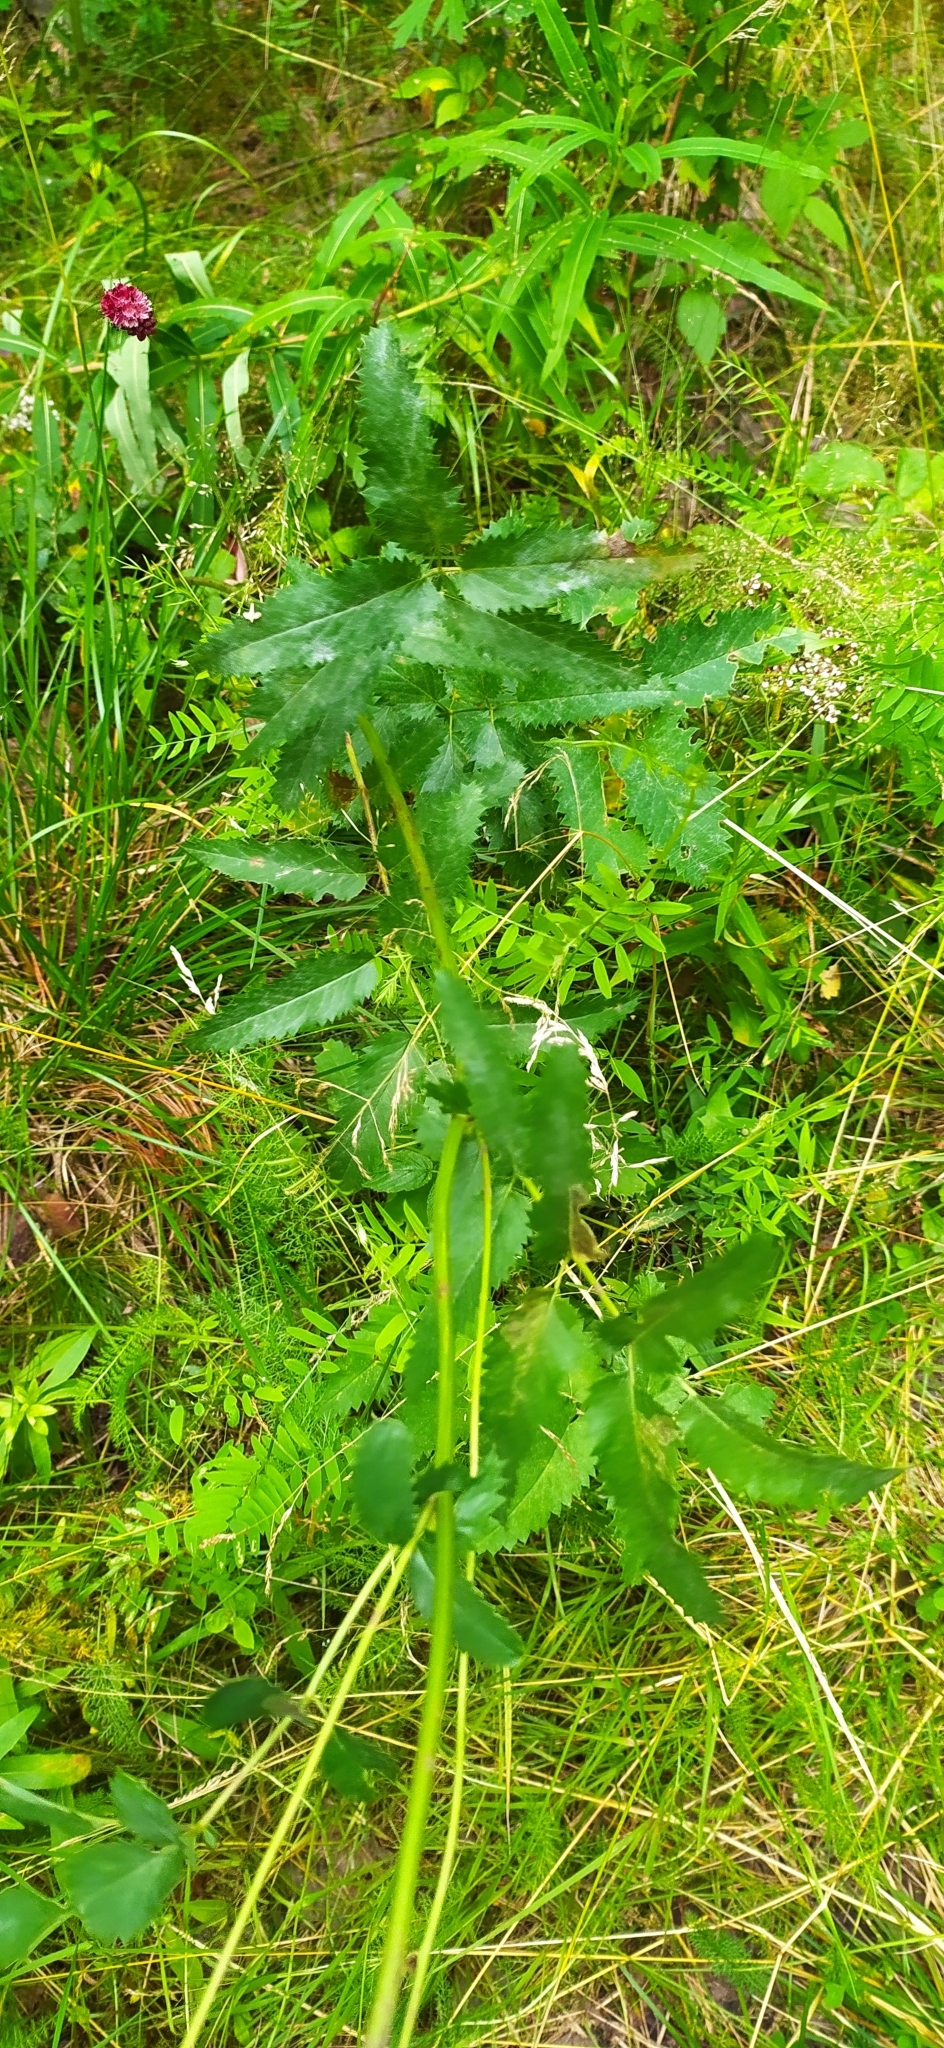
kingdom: Plantae
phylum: Tracheophyta
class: Magnoliopsida
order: Rosales
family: Rosaceae
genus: Sanguisorba
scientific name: Sanguisorba officinalis
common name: Great burnet
